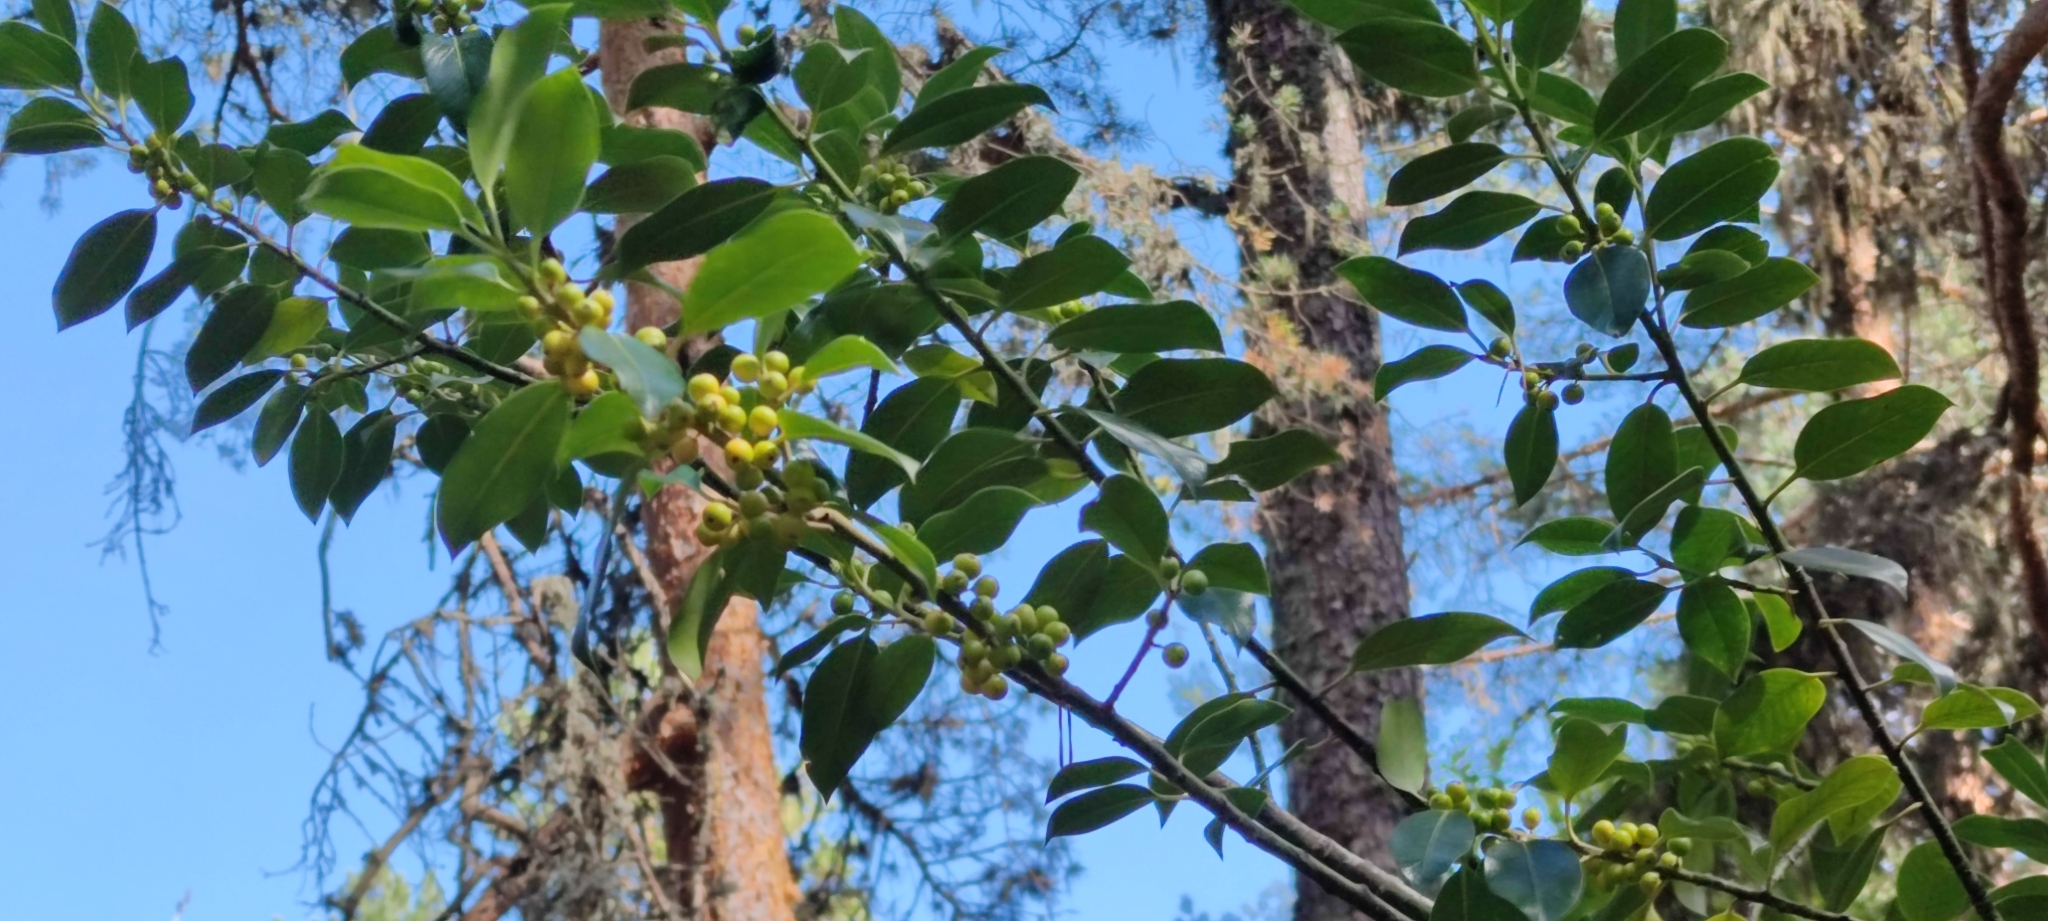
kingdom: Plantae
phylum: Tracheophyta
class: Magnoliopsida
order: Aquifoliales
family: Aquifoliaceae
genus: Ilex
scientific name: Ilex aquifolium
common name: English holly
